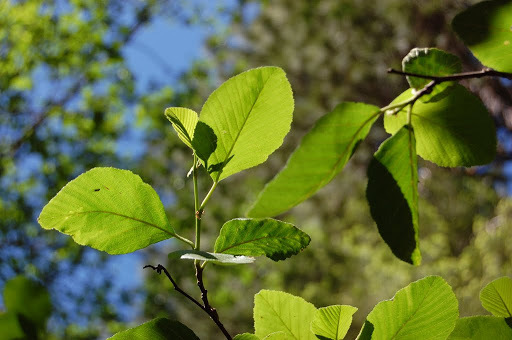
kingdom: Plantae
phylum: Tracheophyta
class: Magnoliopsida
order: Fagales
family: Betulaceae
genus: Alnus
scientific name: Alnus rhombifolia
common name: California alder
